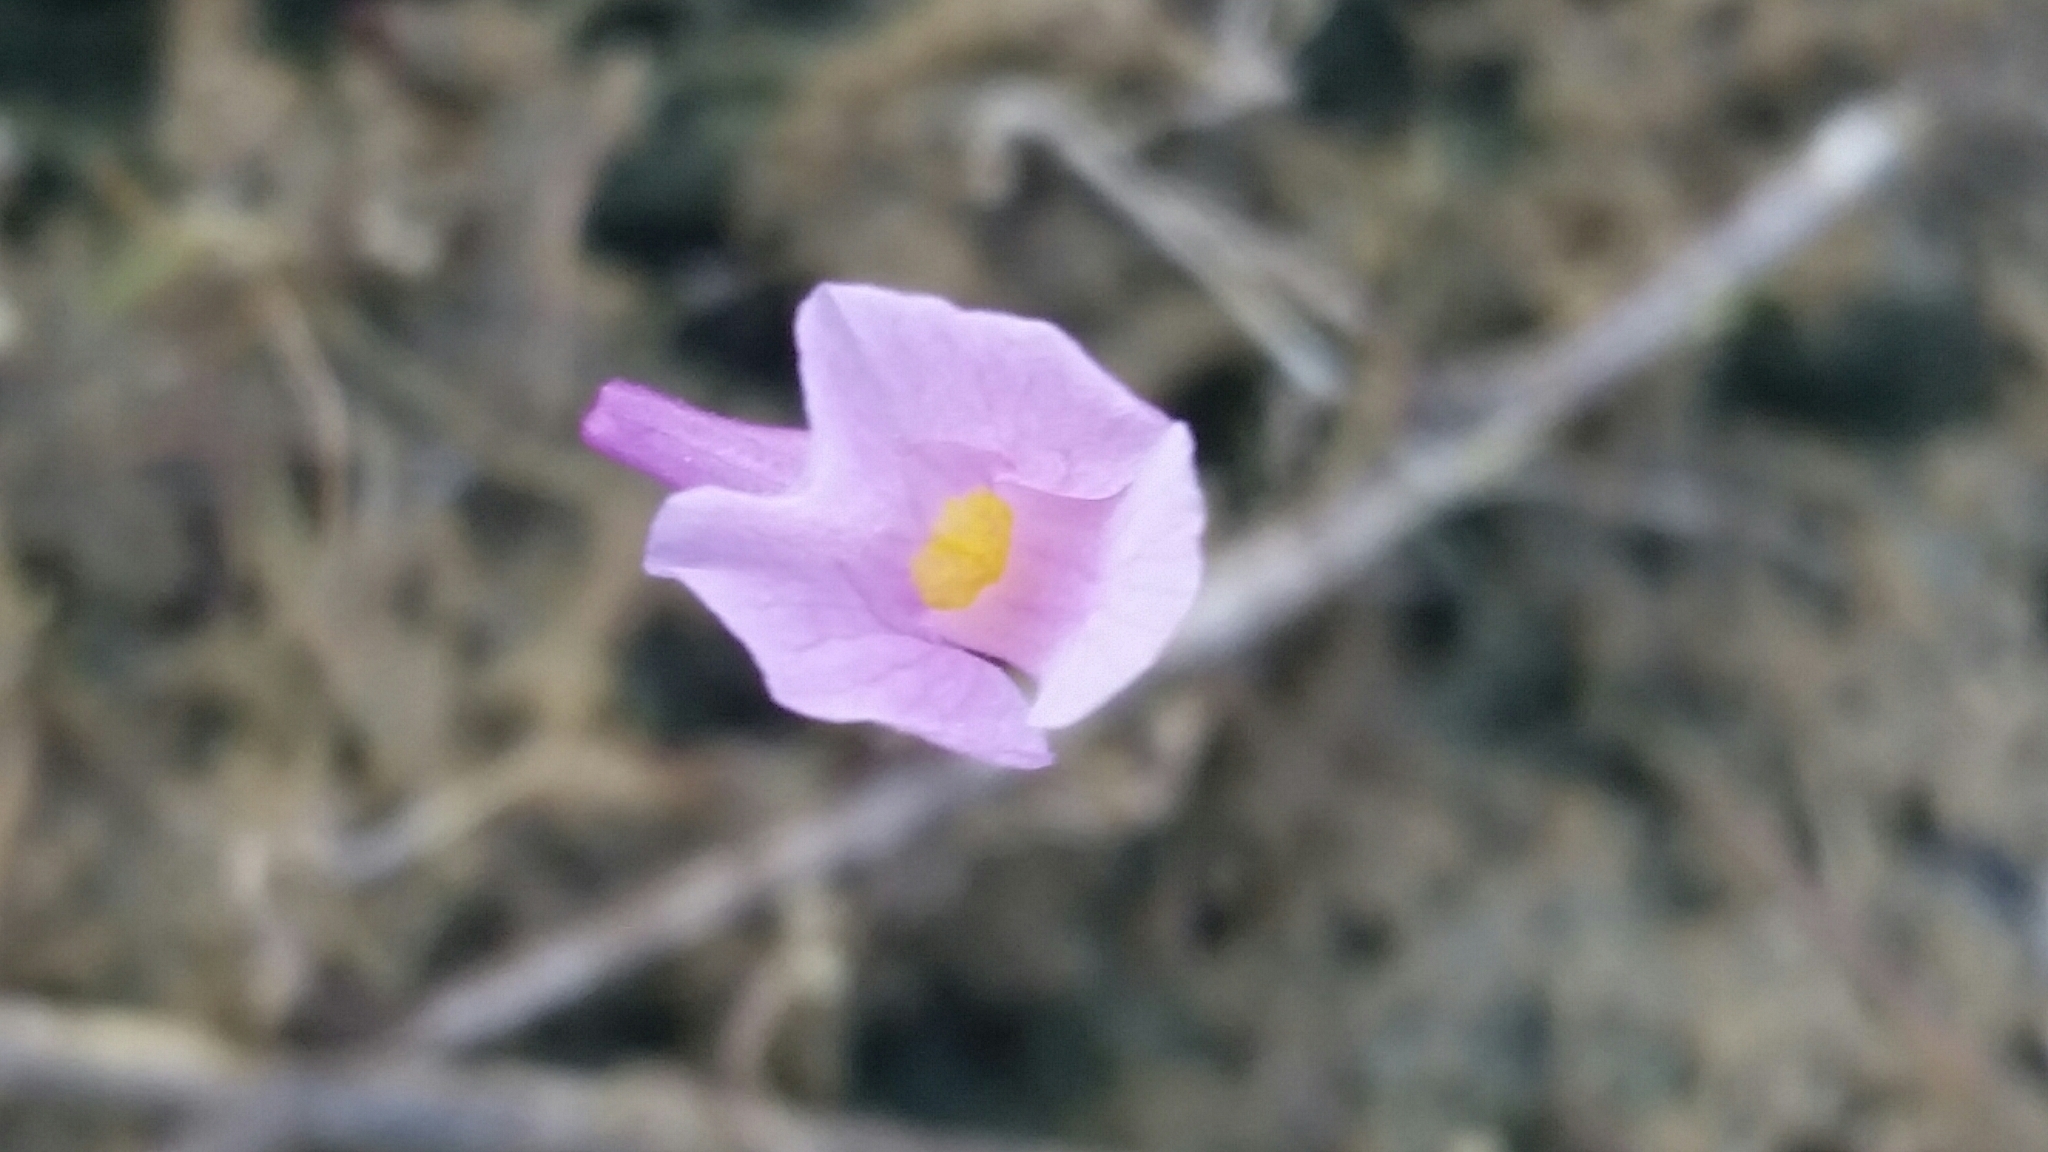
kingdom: Plantae
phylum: Tracheophyta
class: Magnoliopsida
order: Lamiales
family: Lentibulariaceae
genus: Utricularia
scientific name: Utricularia resupinata
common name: Northeastern bladderwort
